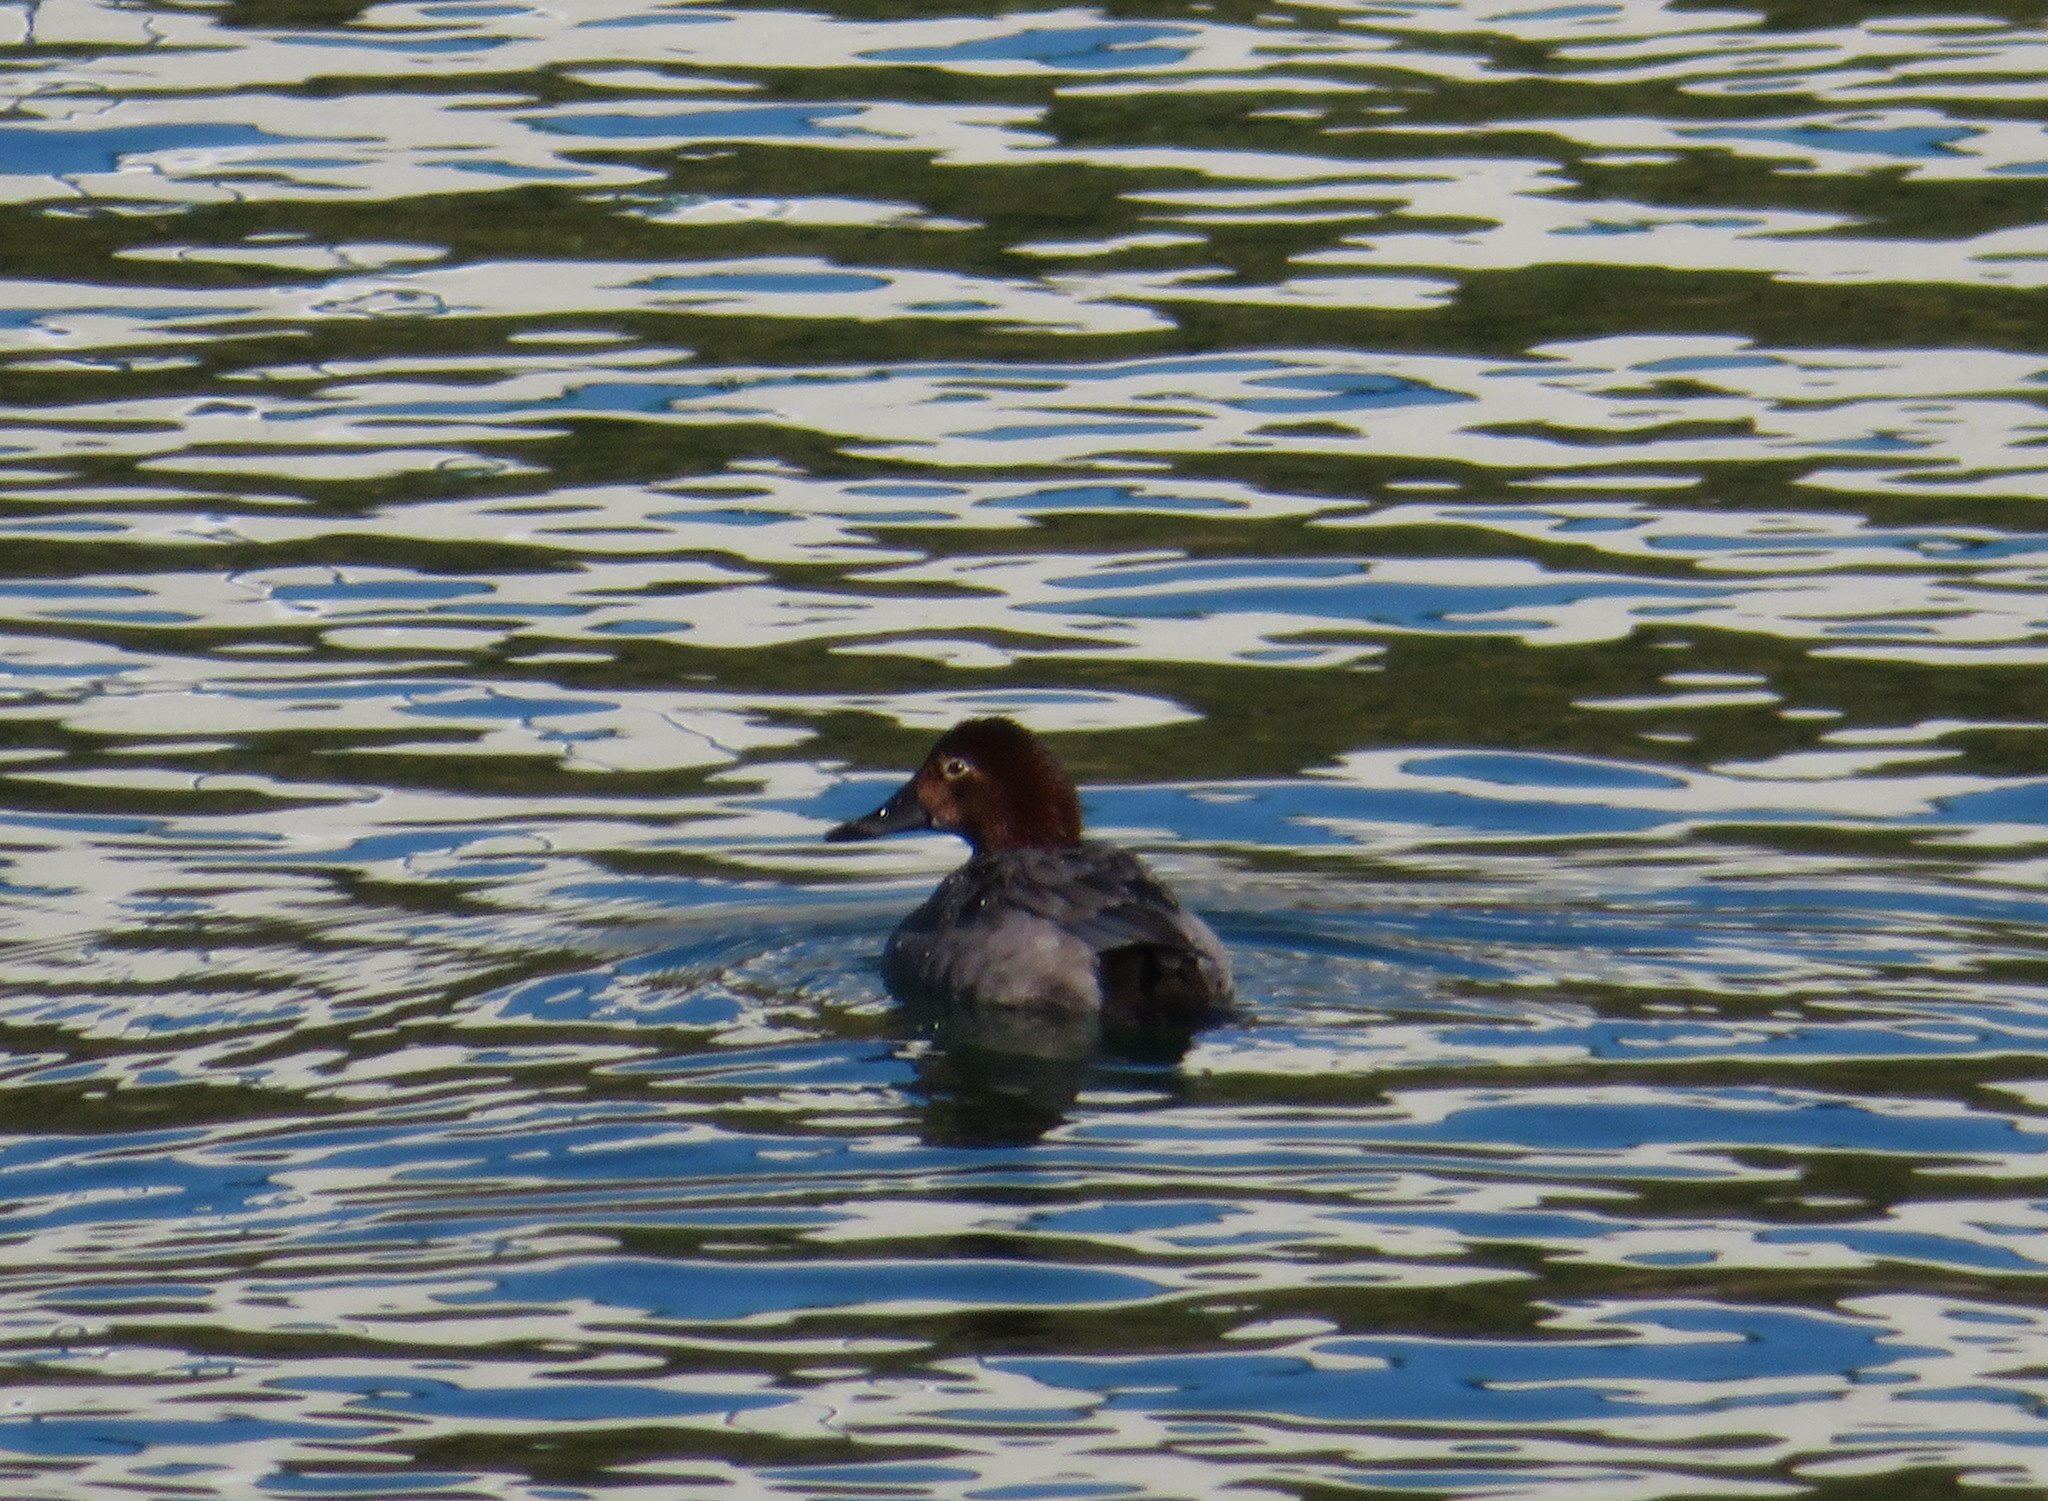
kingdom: Animalia
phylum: Chordata
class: Aves
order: Anseriformes
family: Anatidae
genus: Aythya
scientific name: Aythya ferina
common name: Common pochard
